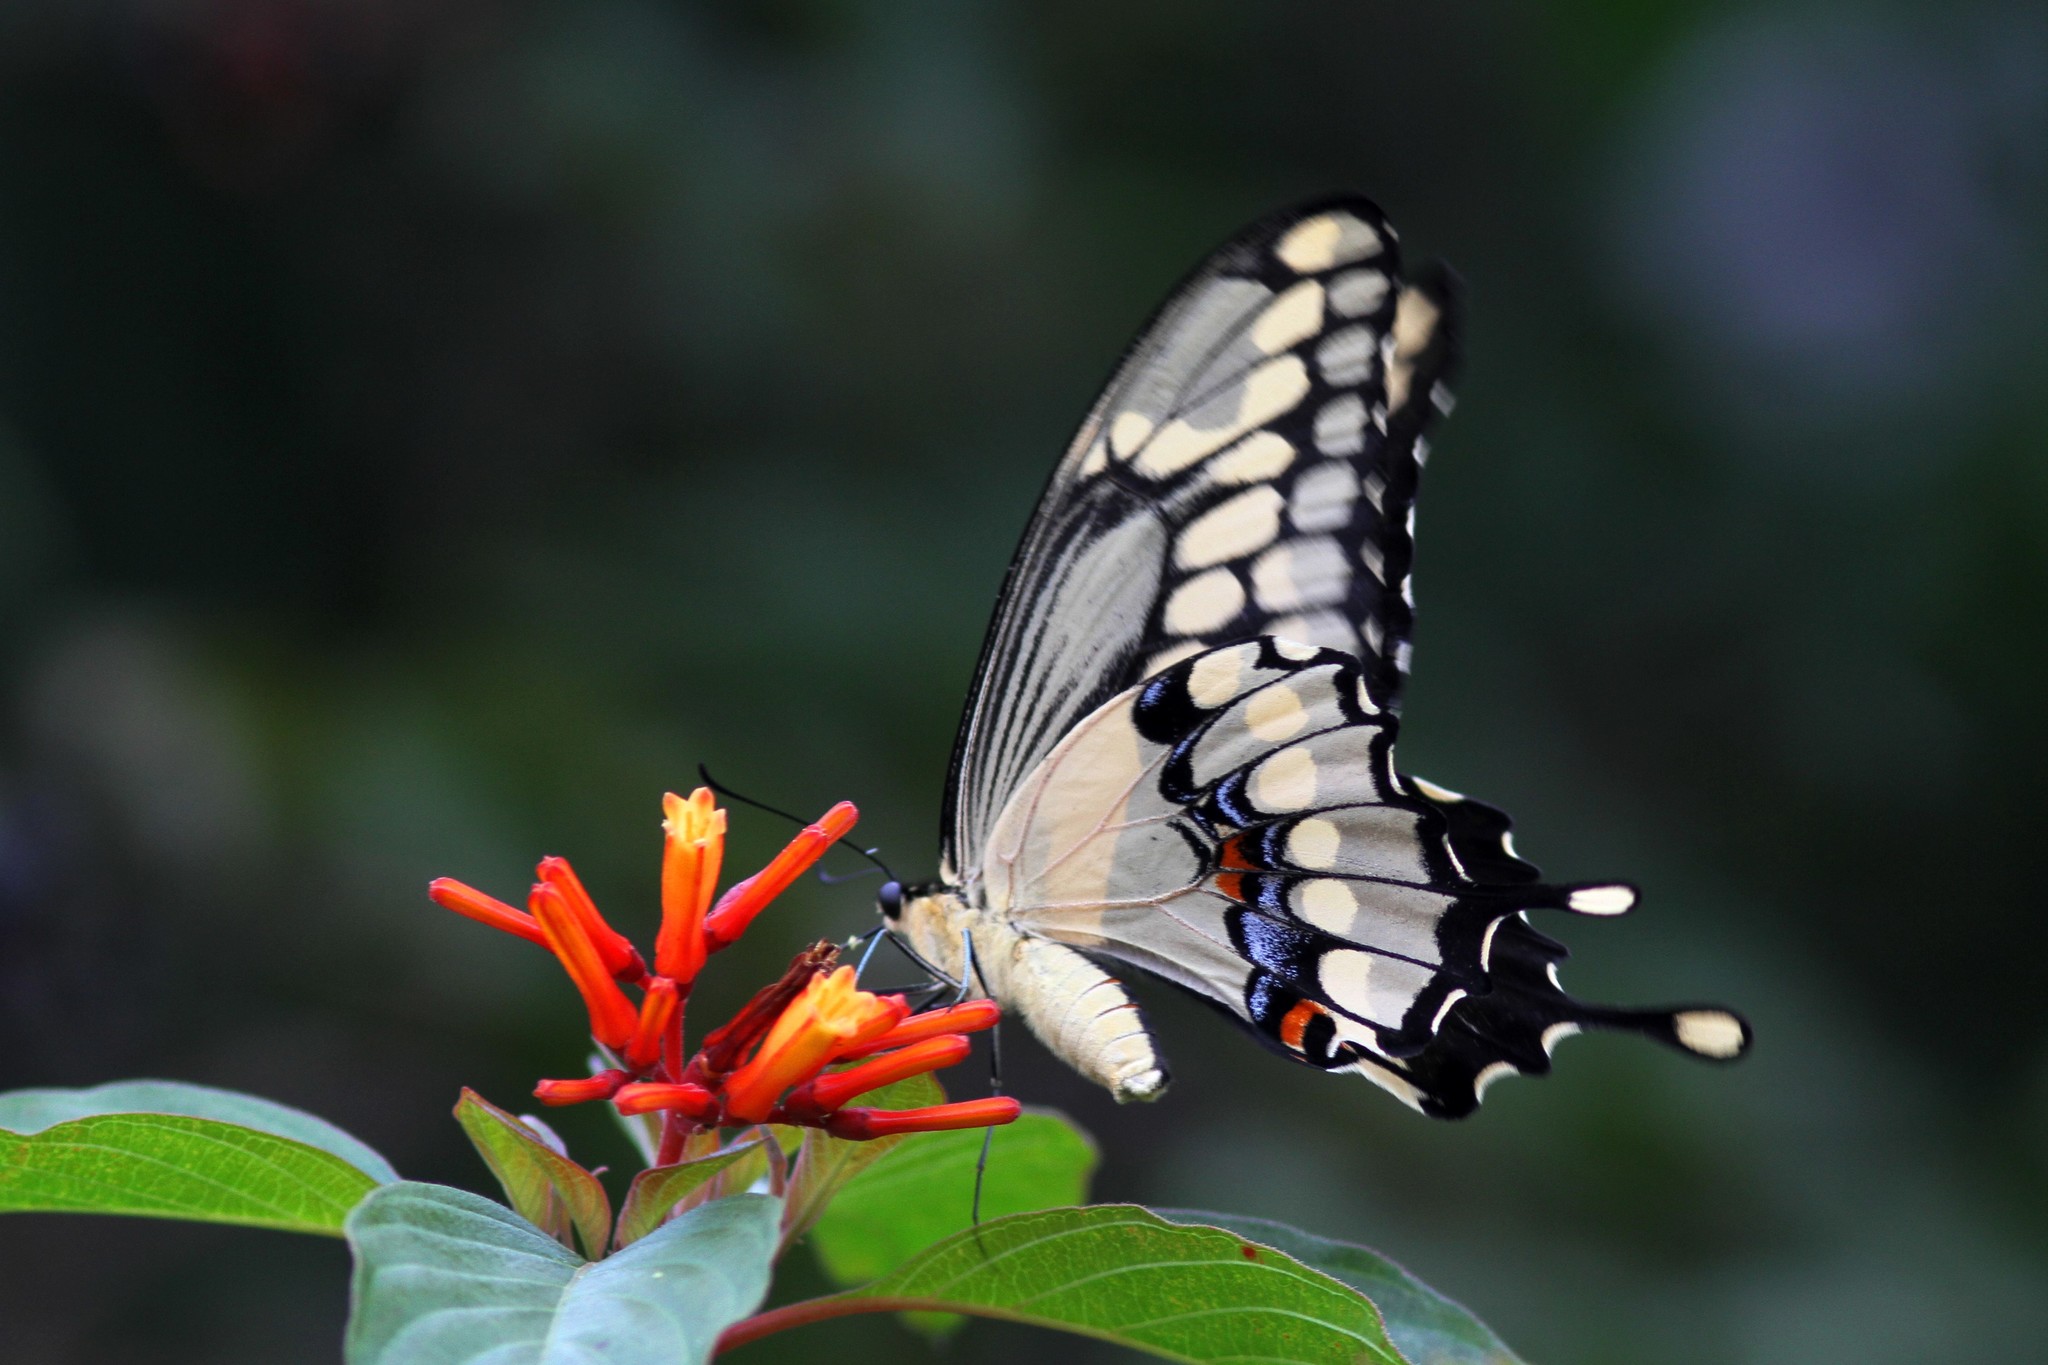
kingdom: Animalia
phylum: Arthropoda
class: Insecta
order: Lepidoptera
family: Papilionidae
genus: Papilio
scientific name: Papilio cresphontes
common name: Giant swallowtail
